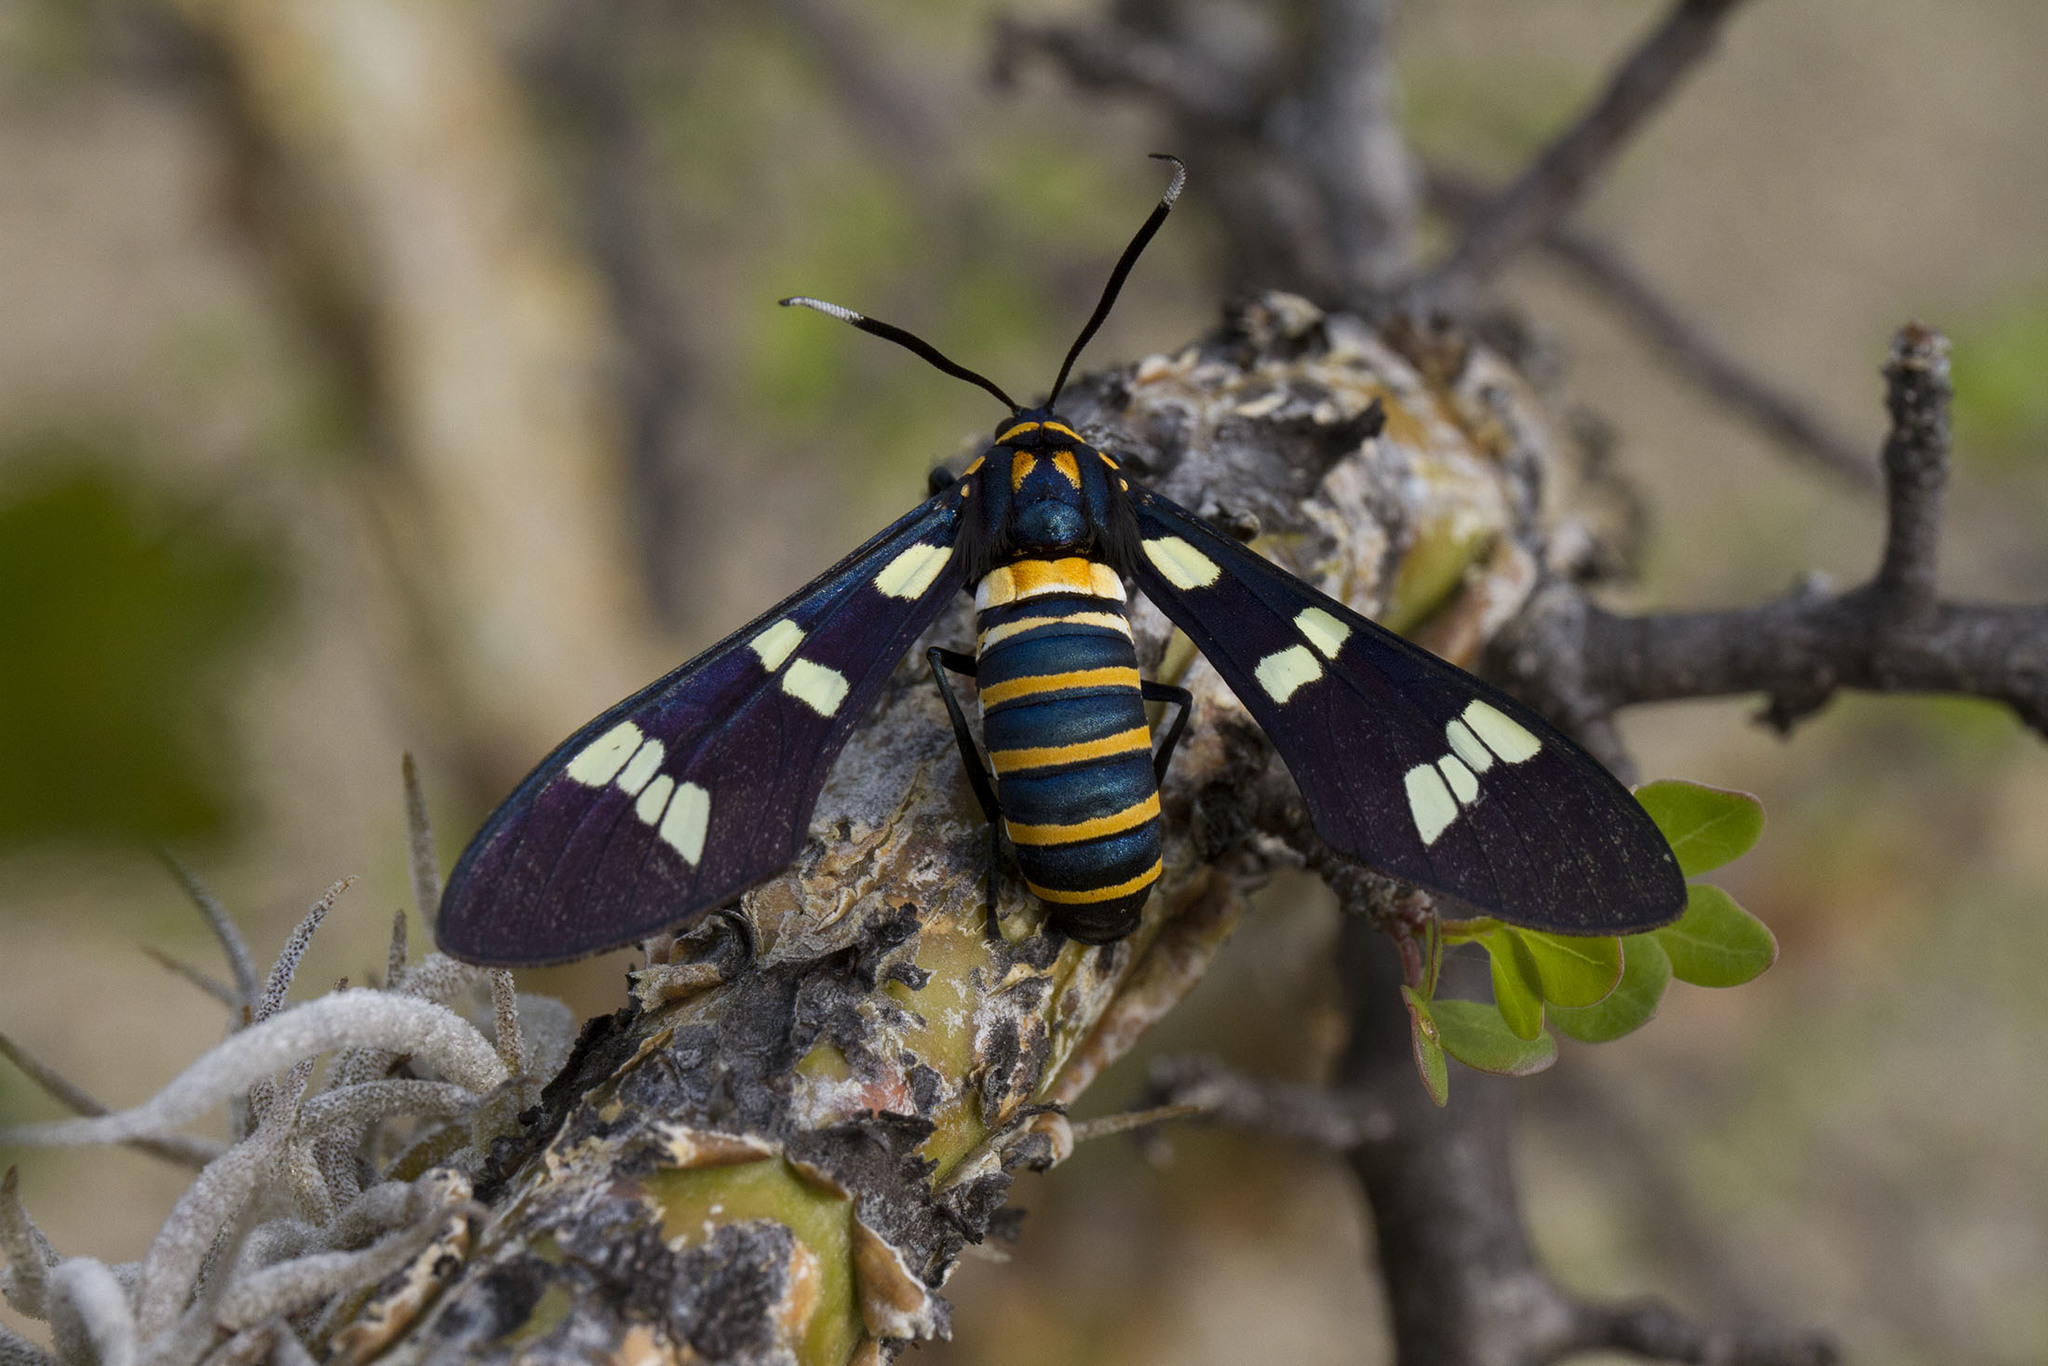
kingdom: Animalia
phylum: Arthropoda
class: Insecta
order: Lepidoptera
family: Erebidae
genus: Syntomeida
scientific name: Syntomeida melanthus
